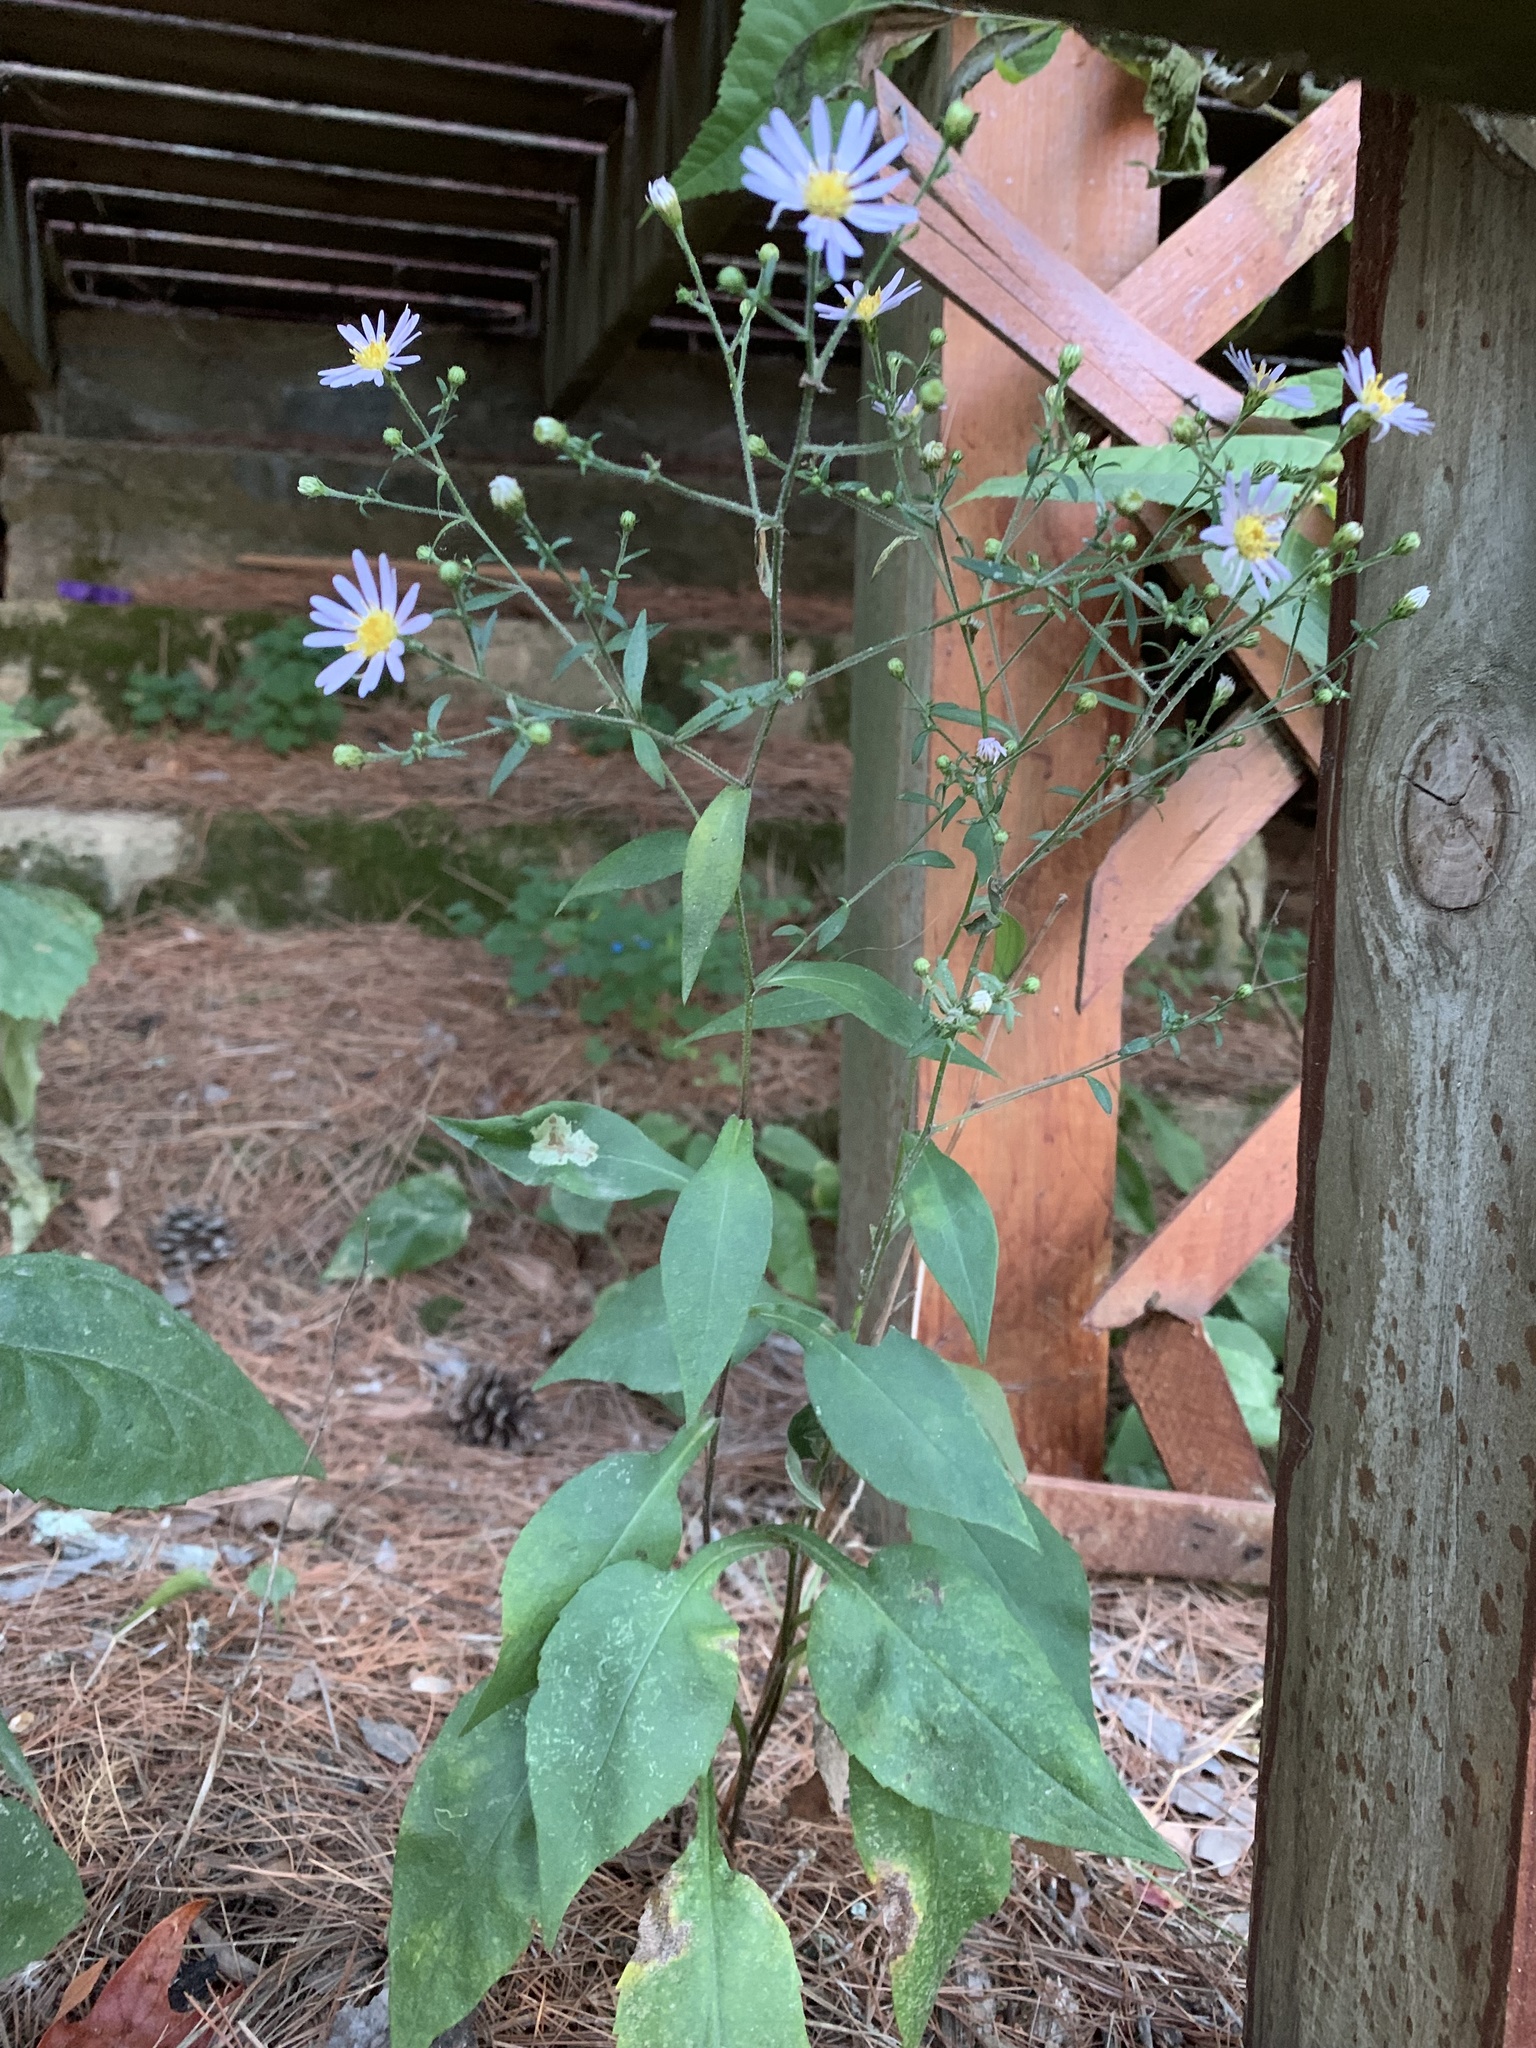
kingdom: Animalia
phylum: Arthropoda
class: Insecta
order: Diptera
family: Agromyzidae
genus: Calycomyza
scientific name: Calycomyza promissa
